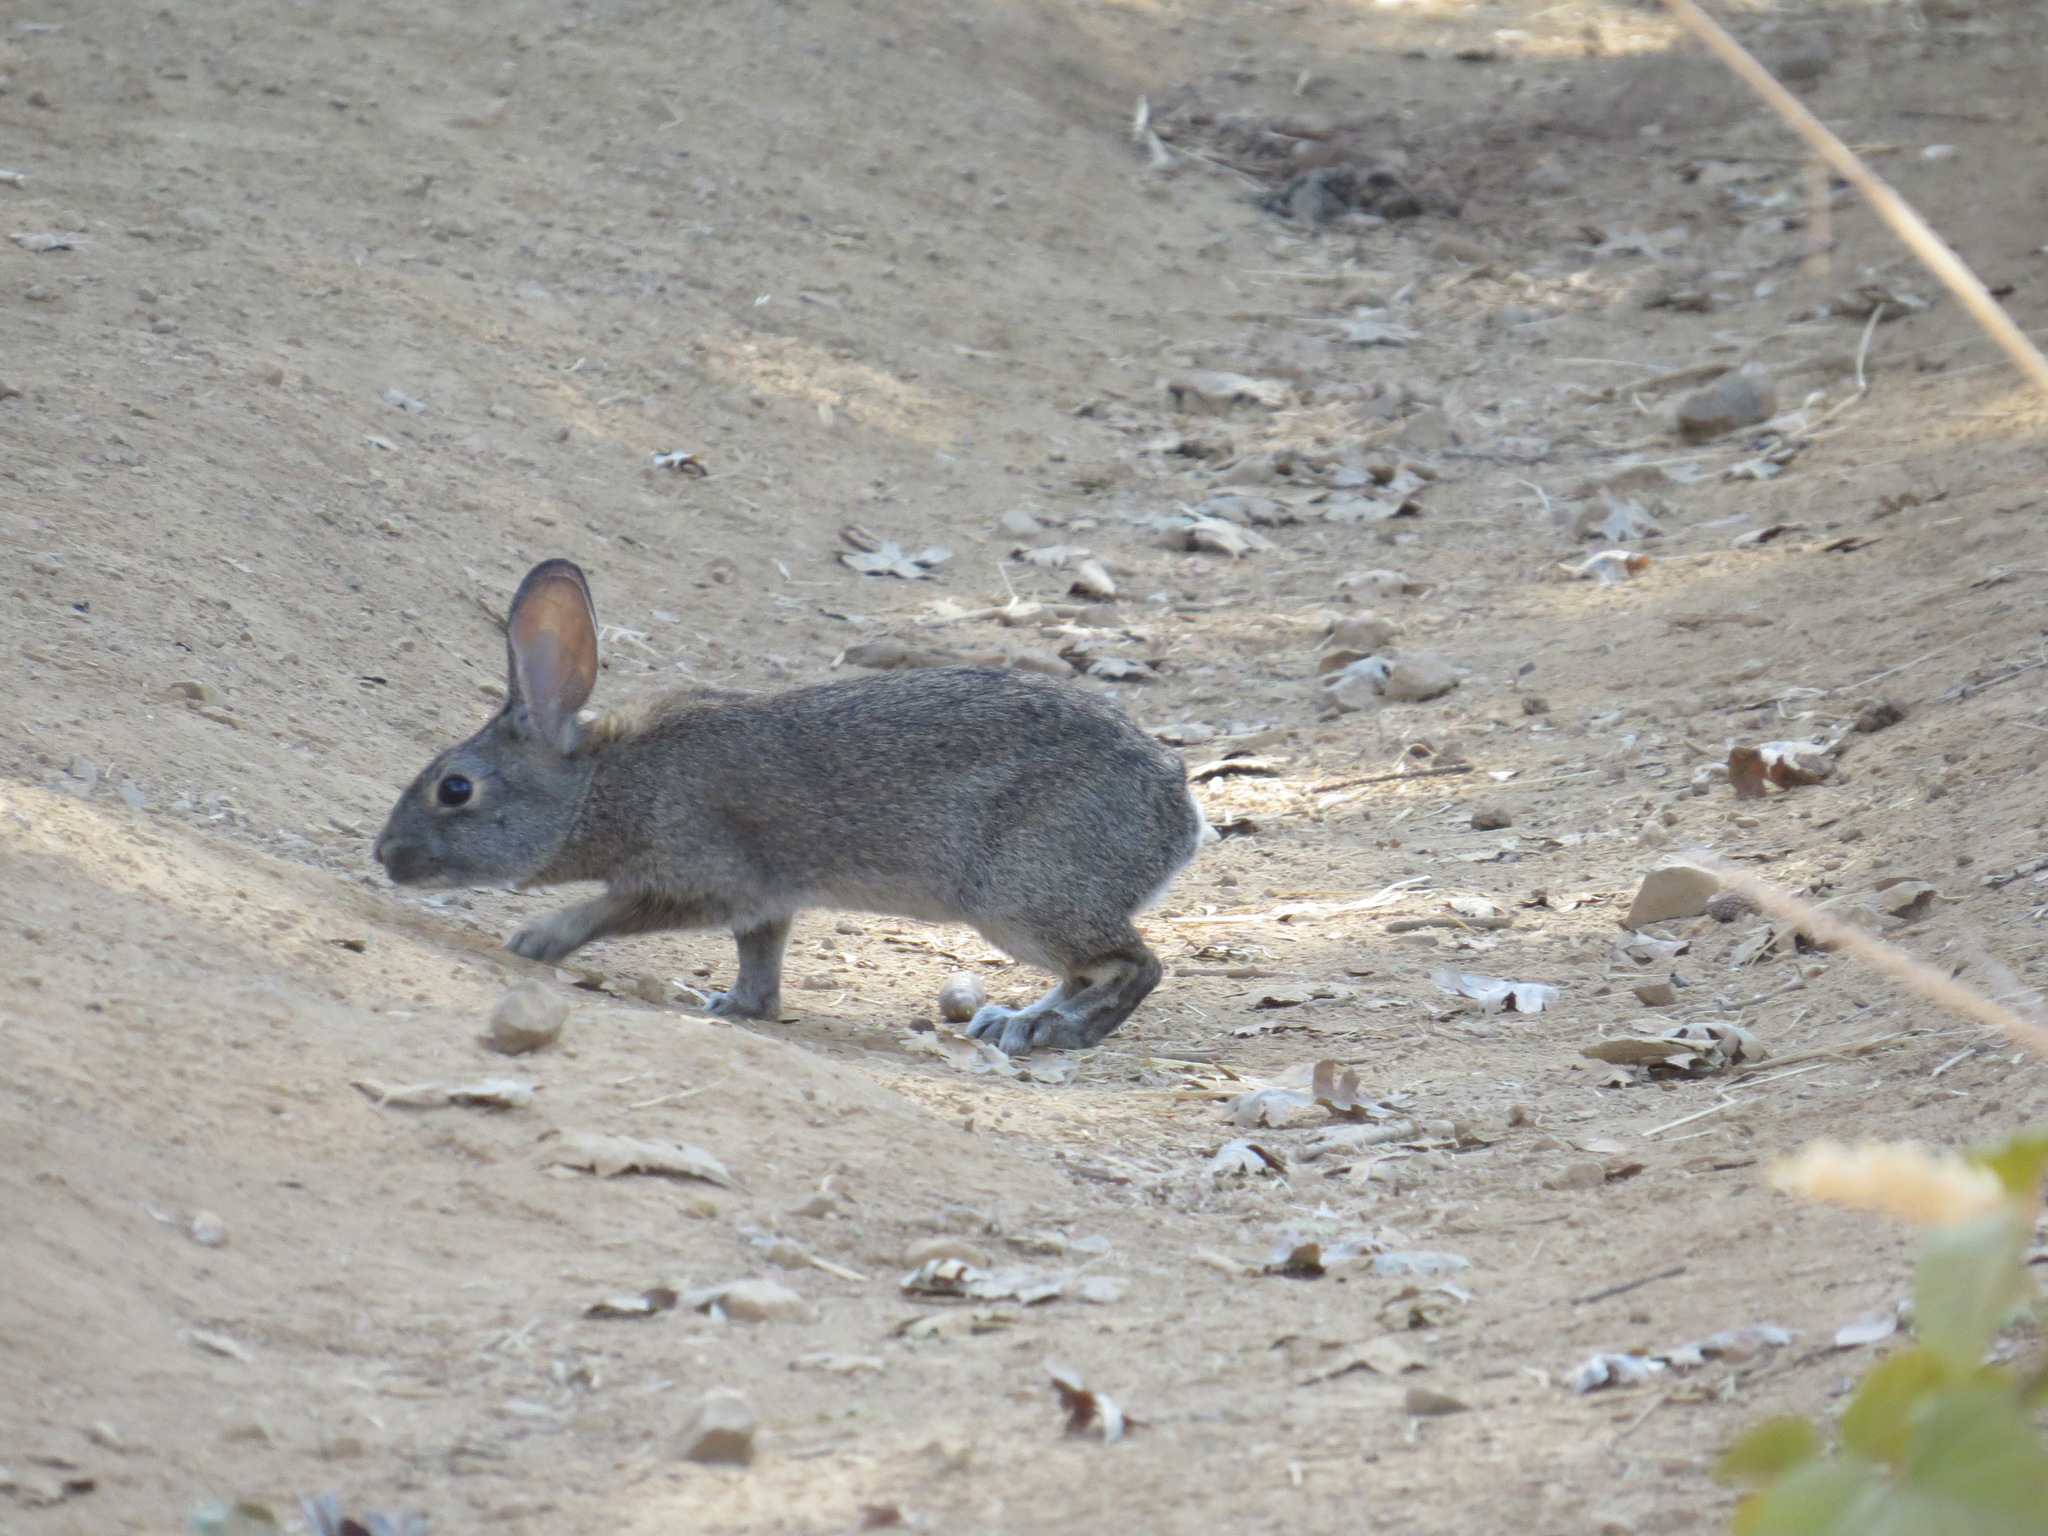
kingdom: Animalia
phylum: Chordata
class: Mammalia
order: Lagomorpha
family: Leporidae
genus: Sylvilagus
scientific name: Sylvilagus bachmani
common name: Brush rabbit
